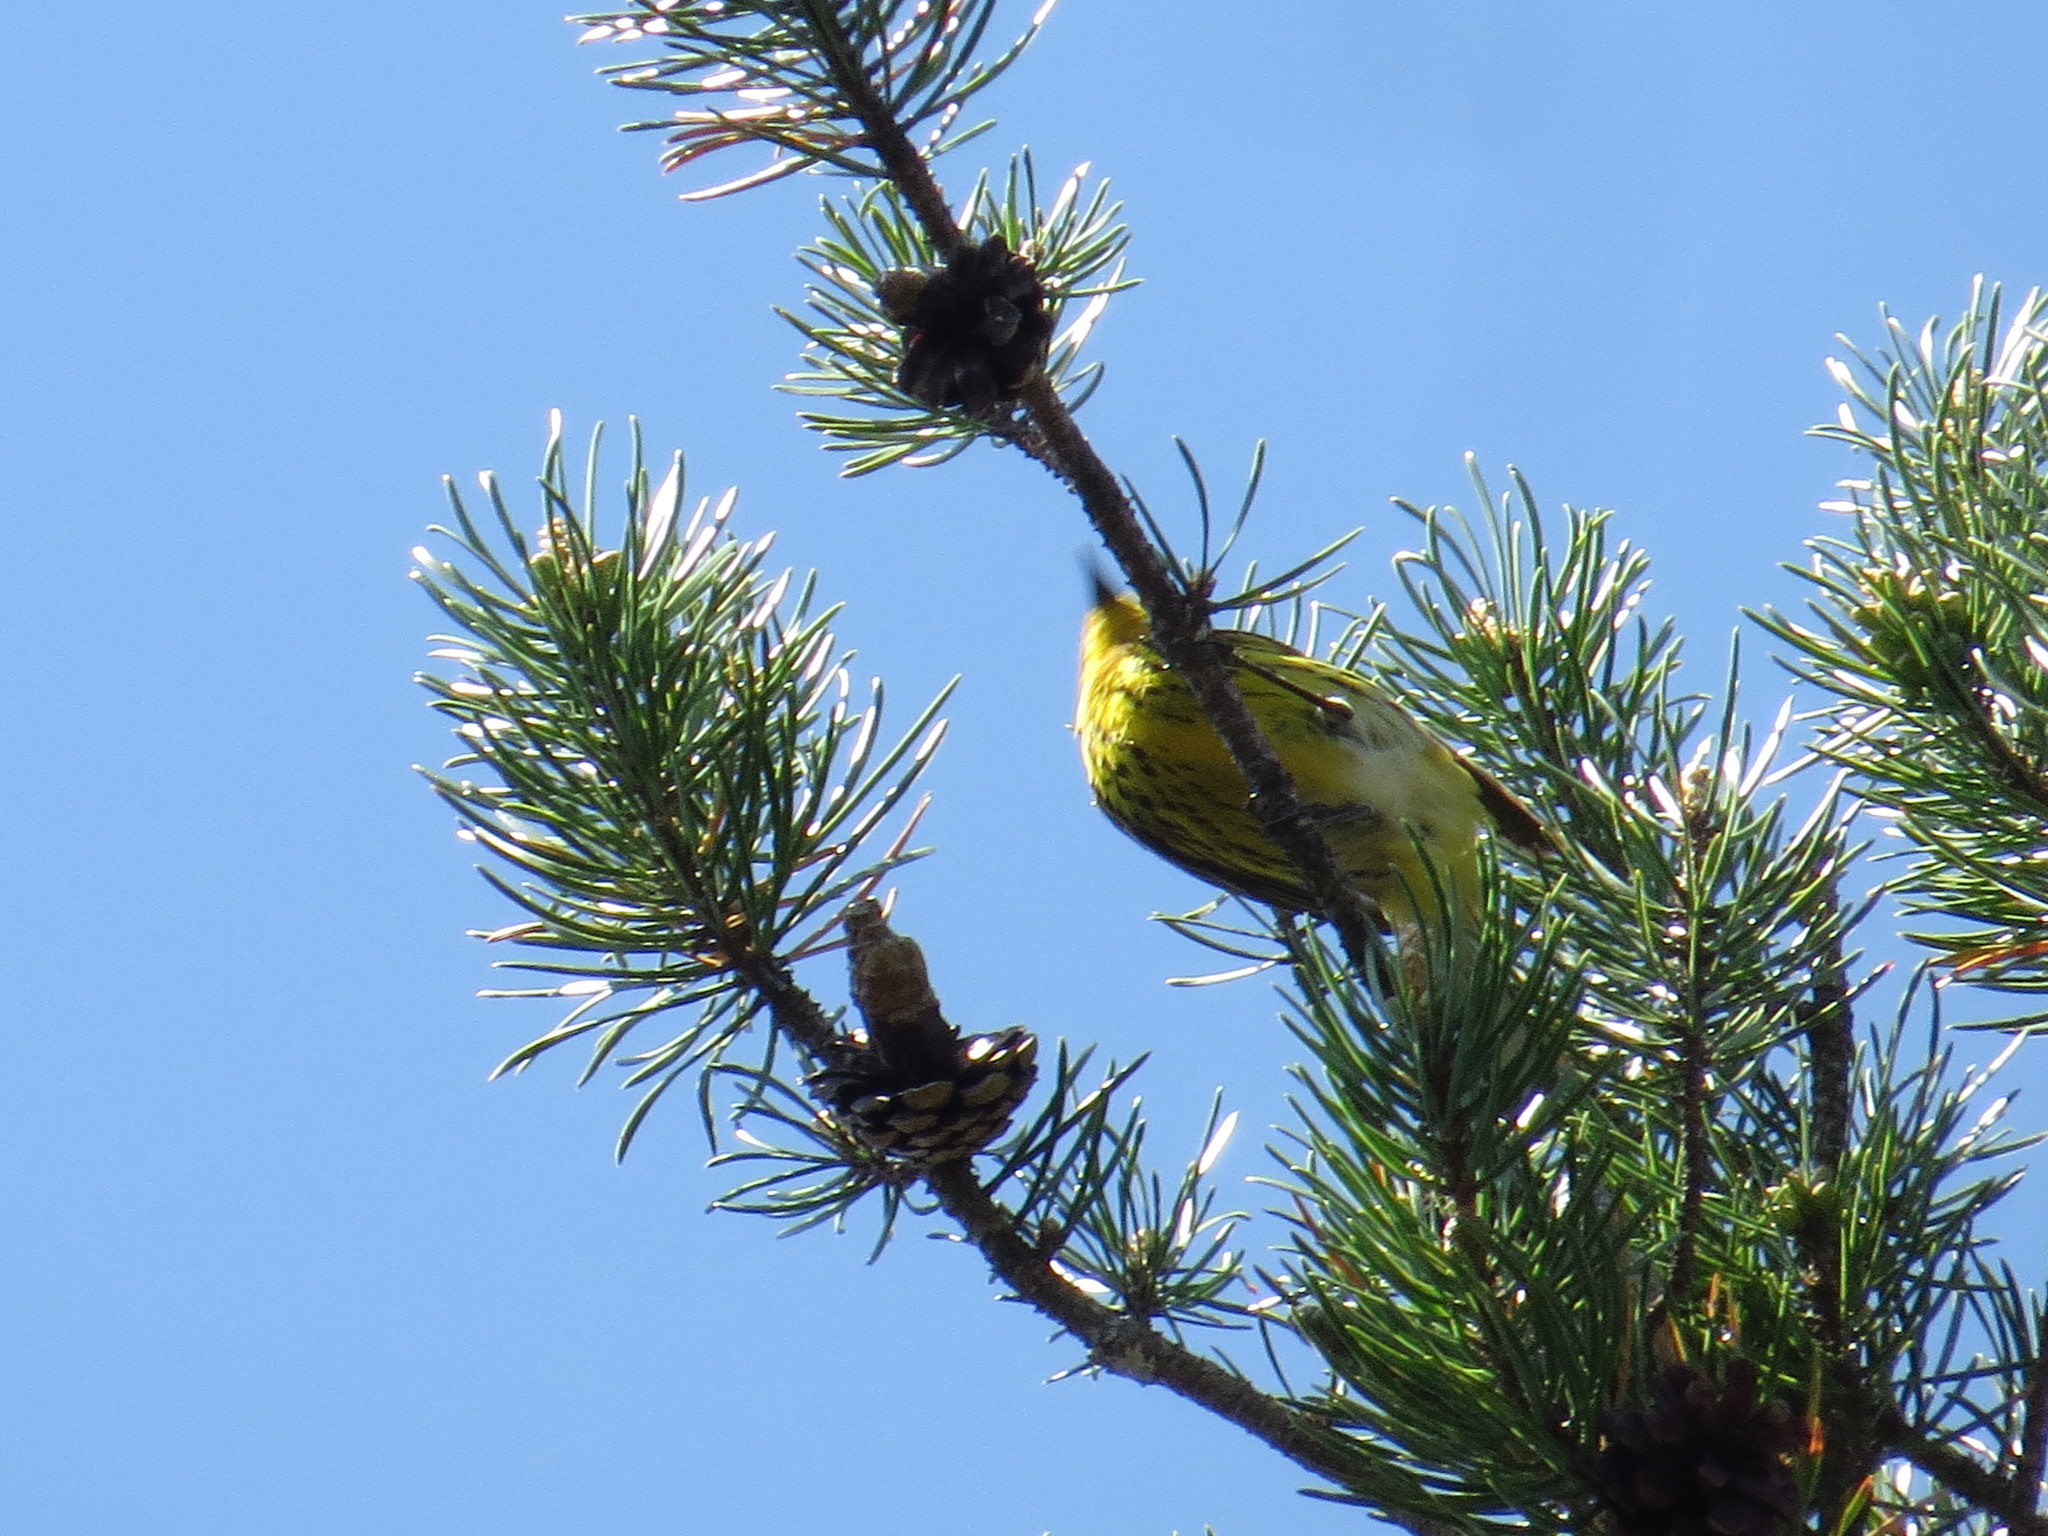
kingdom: Animalia
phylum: Chordata
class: Aves
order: Passeriformes
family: Parulidae
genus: Setophaga
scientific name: Setophaga tigrina
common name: Cape may warbler
